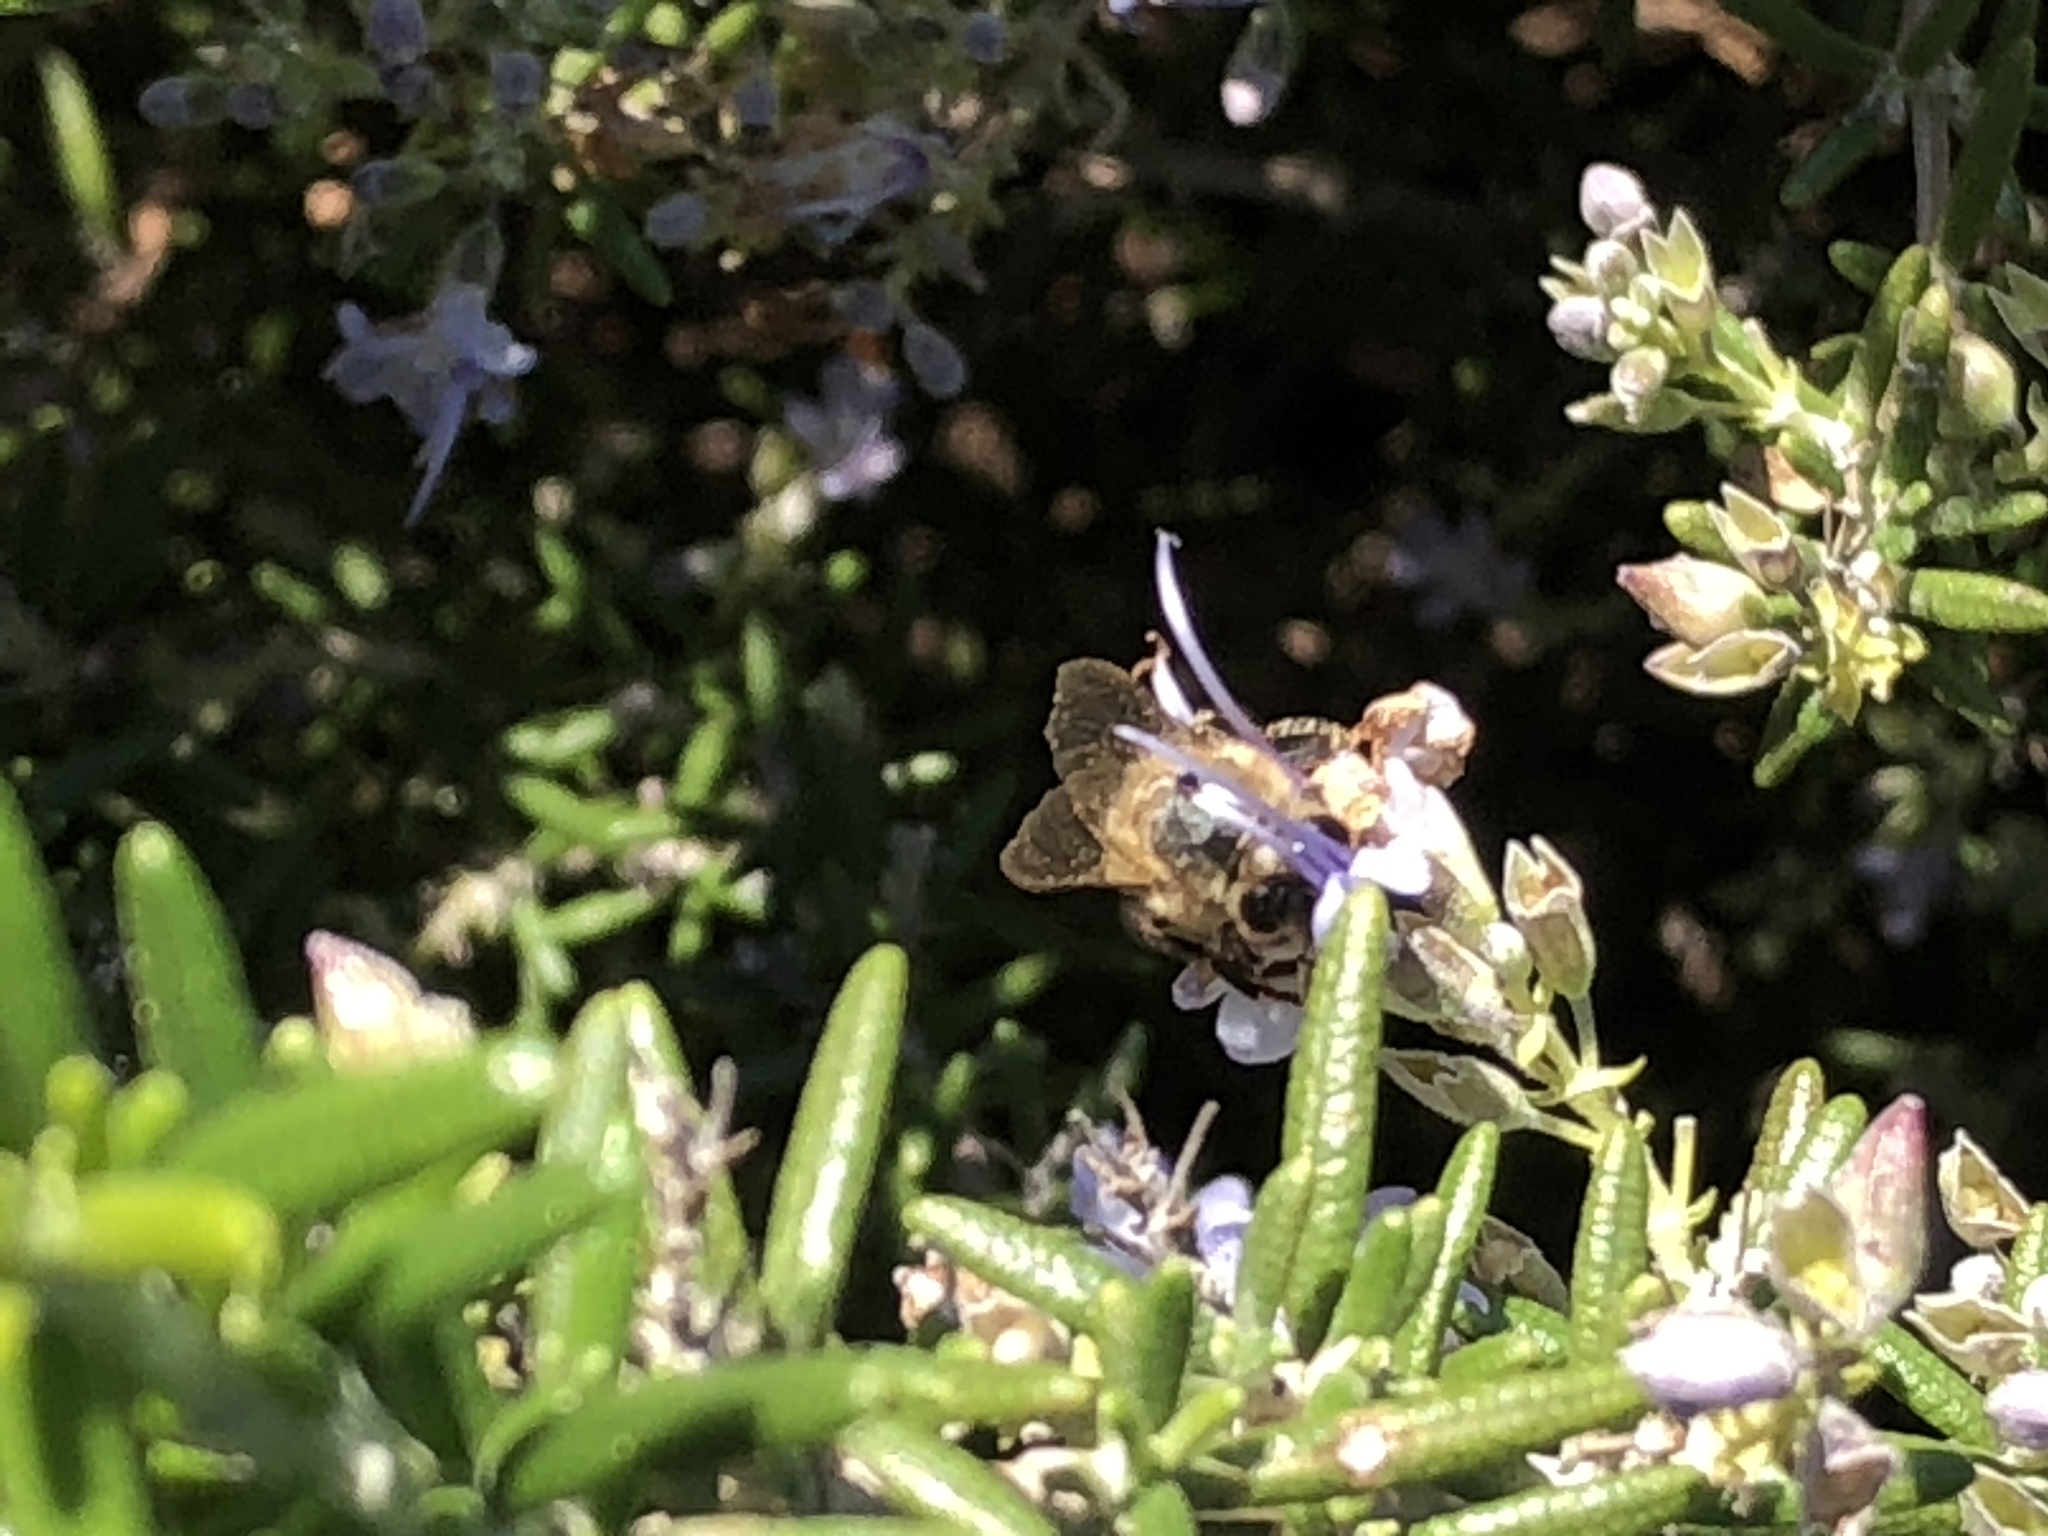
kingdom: Animalia
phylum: Arthropoda
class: Insecta
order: Hymenoptera
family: Apidae
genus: Apis
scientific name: Apis mellifera
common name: Honey bee
